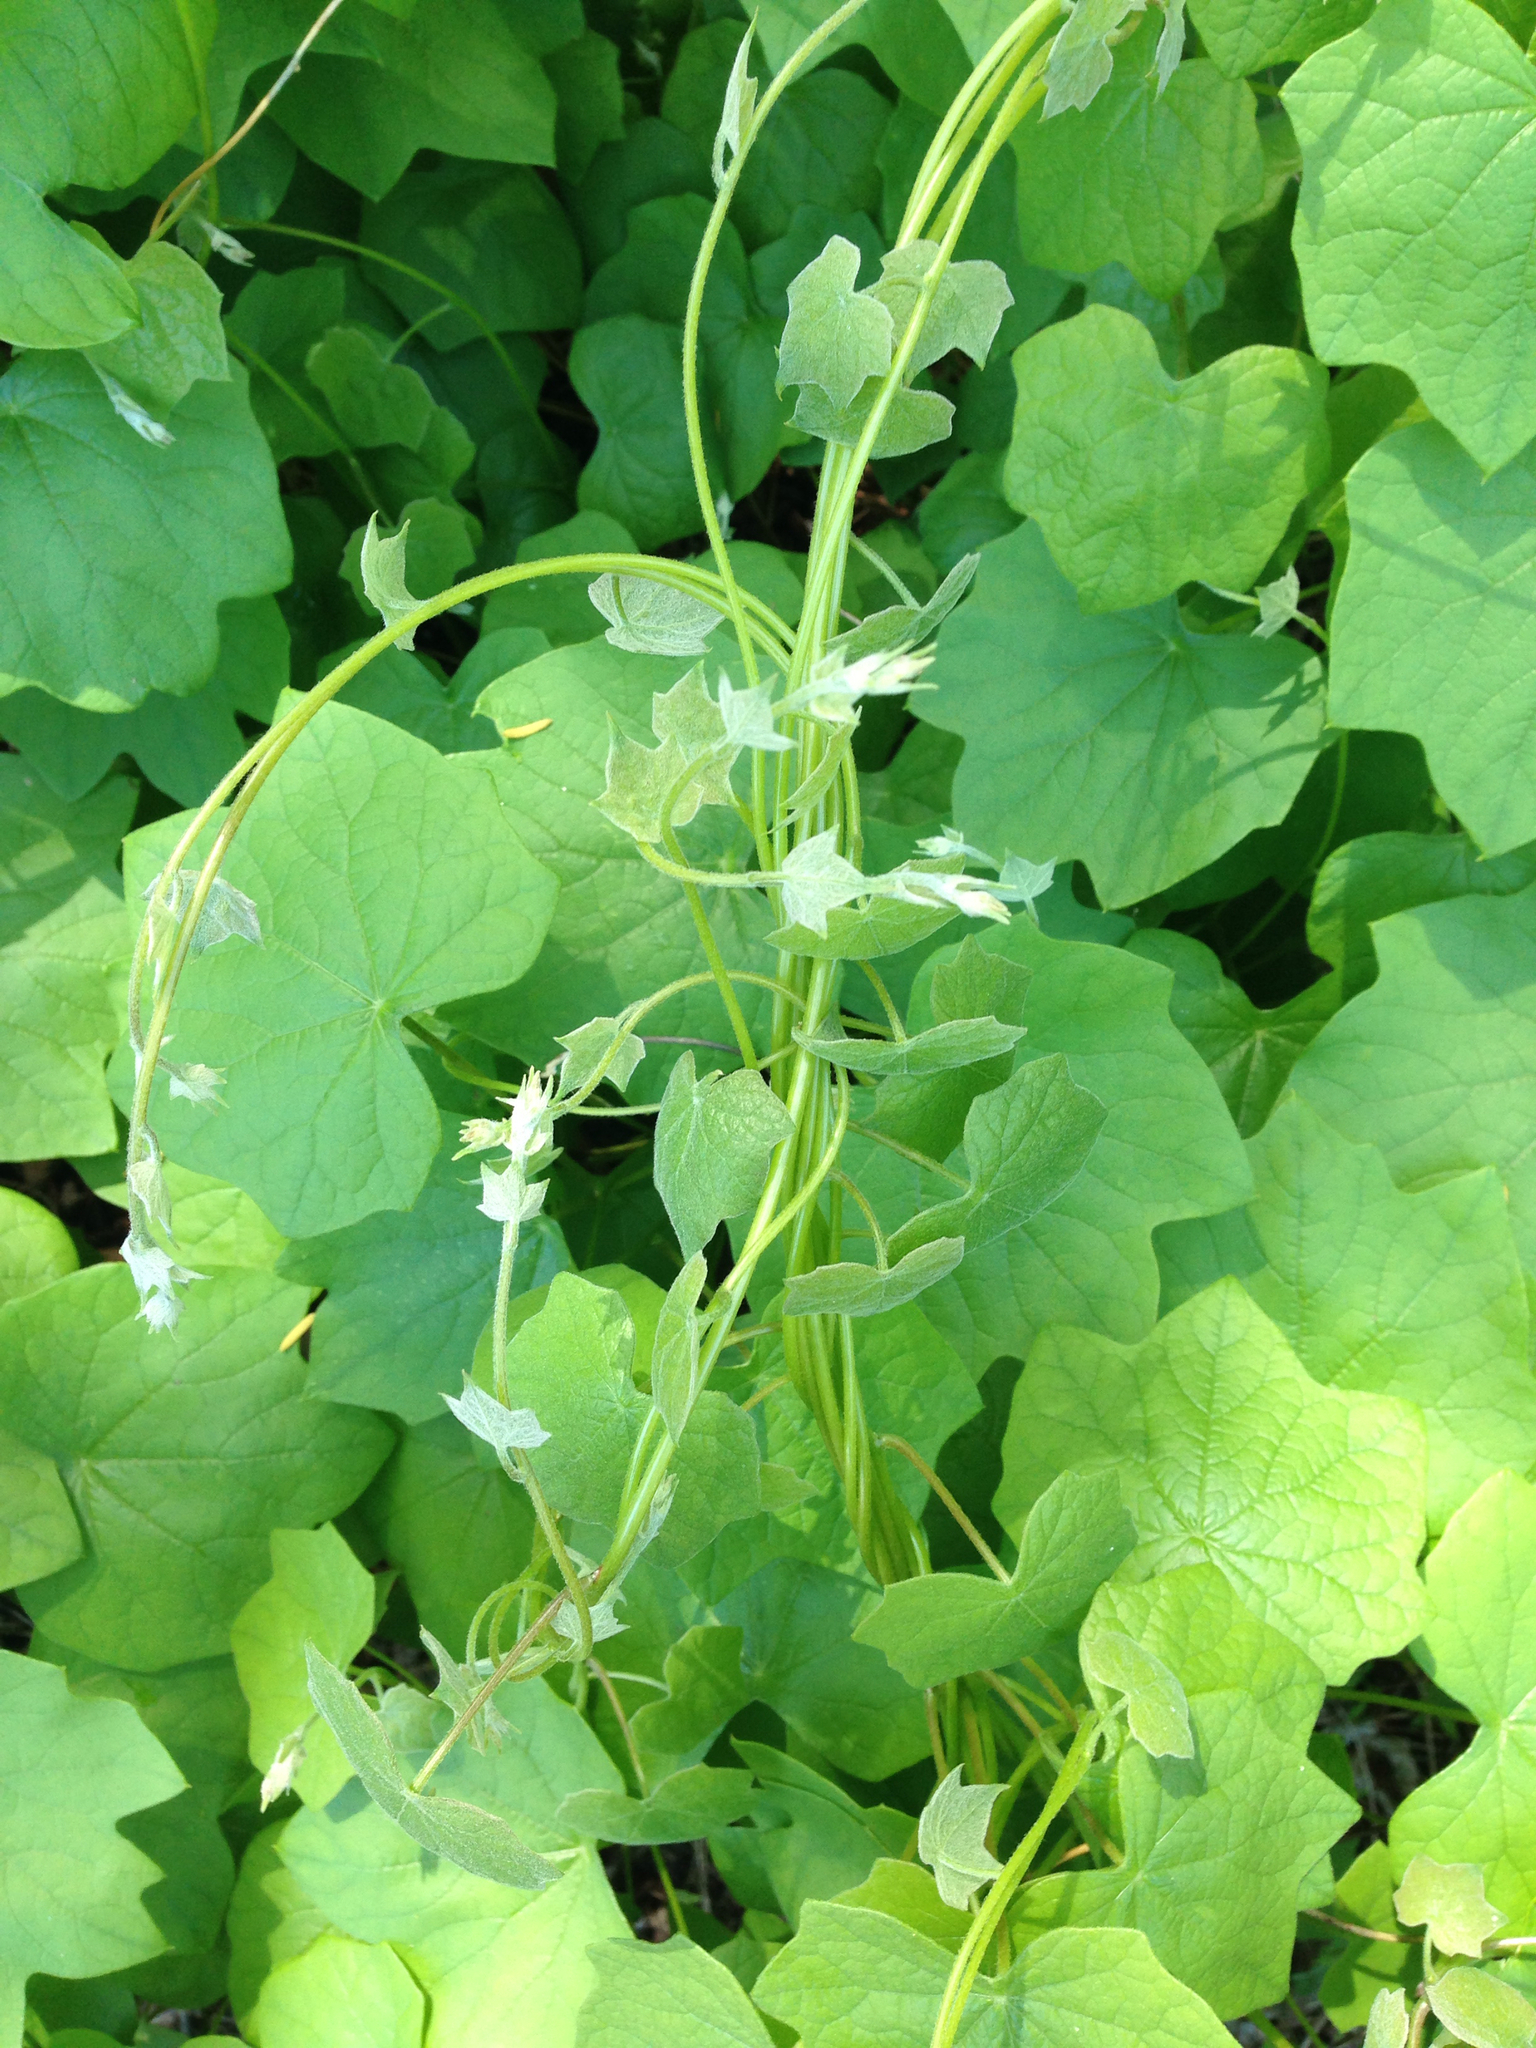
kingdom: Plantae
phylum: Tracheophyta
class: Magnoliopsida
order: Ranunculales
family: Menispermaceae
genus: Menispermum
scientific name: Menispermum canadense
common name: Moonseed
